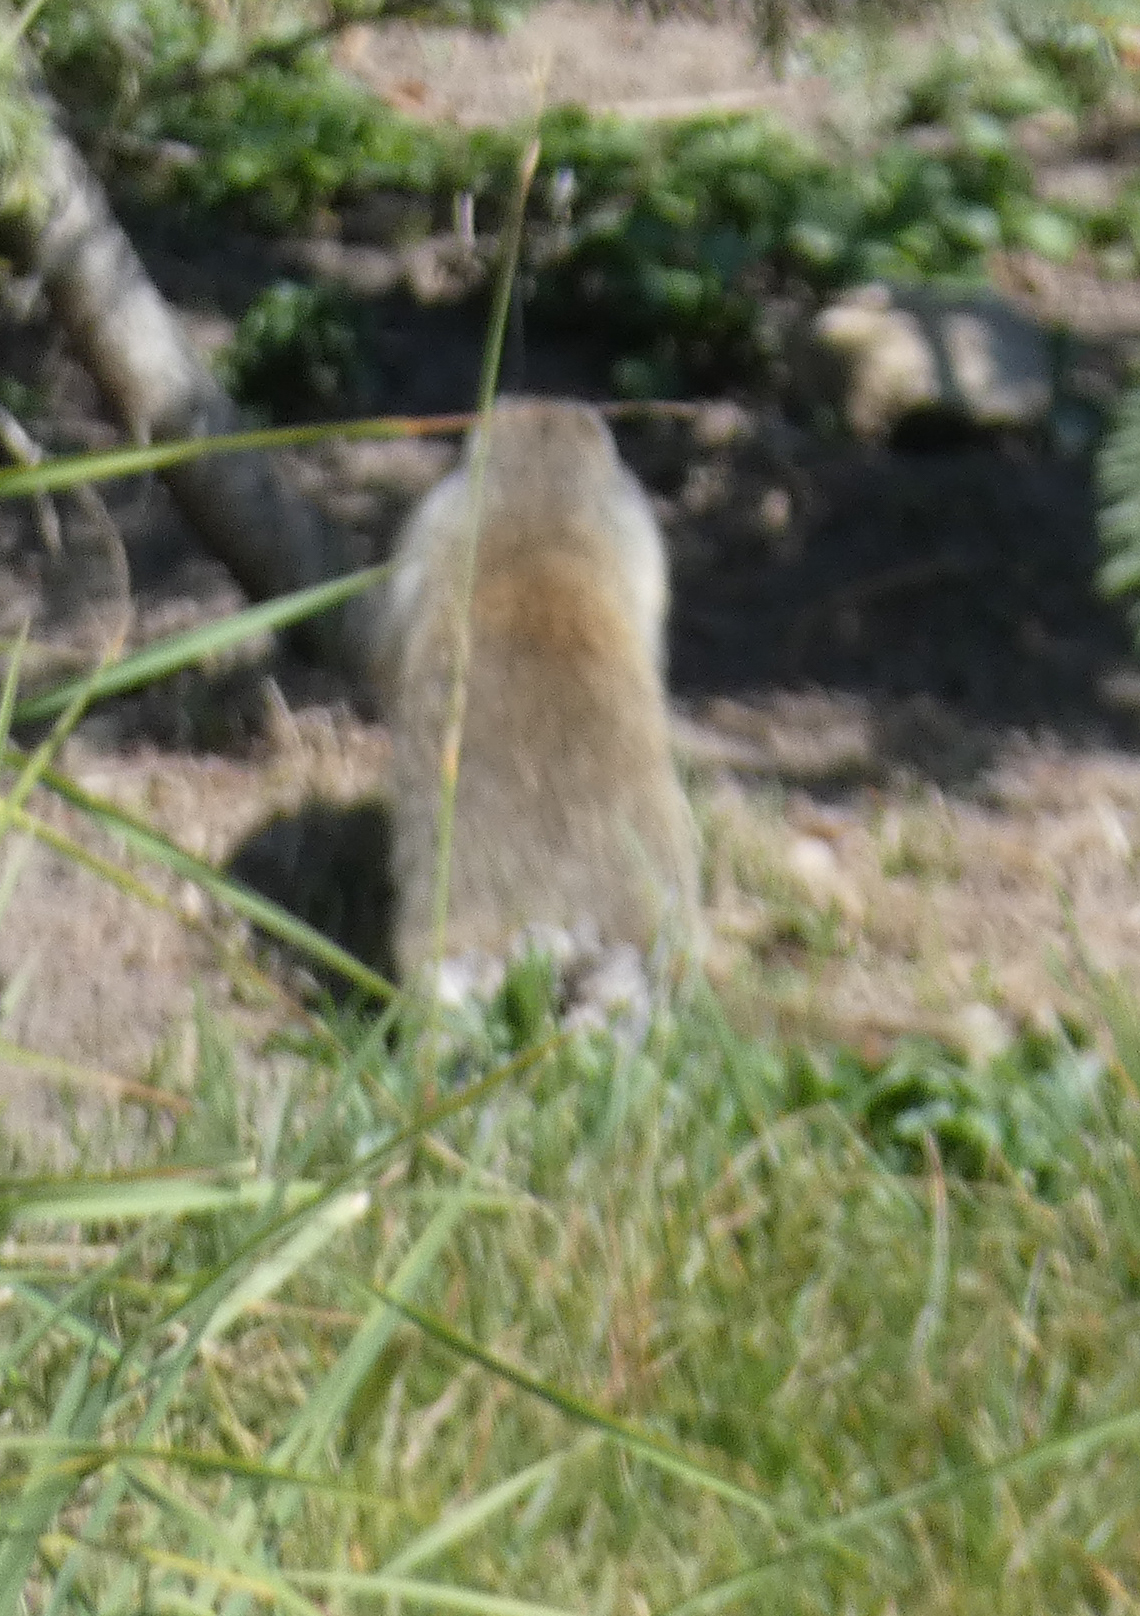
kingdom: Animalia
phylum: Chordata
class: Mammalia
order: Rodentia
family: Sciuridae
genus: Urocitellus
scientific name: Urocitellus columbianus
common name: Columbian ground squirrel
